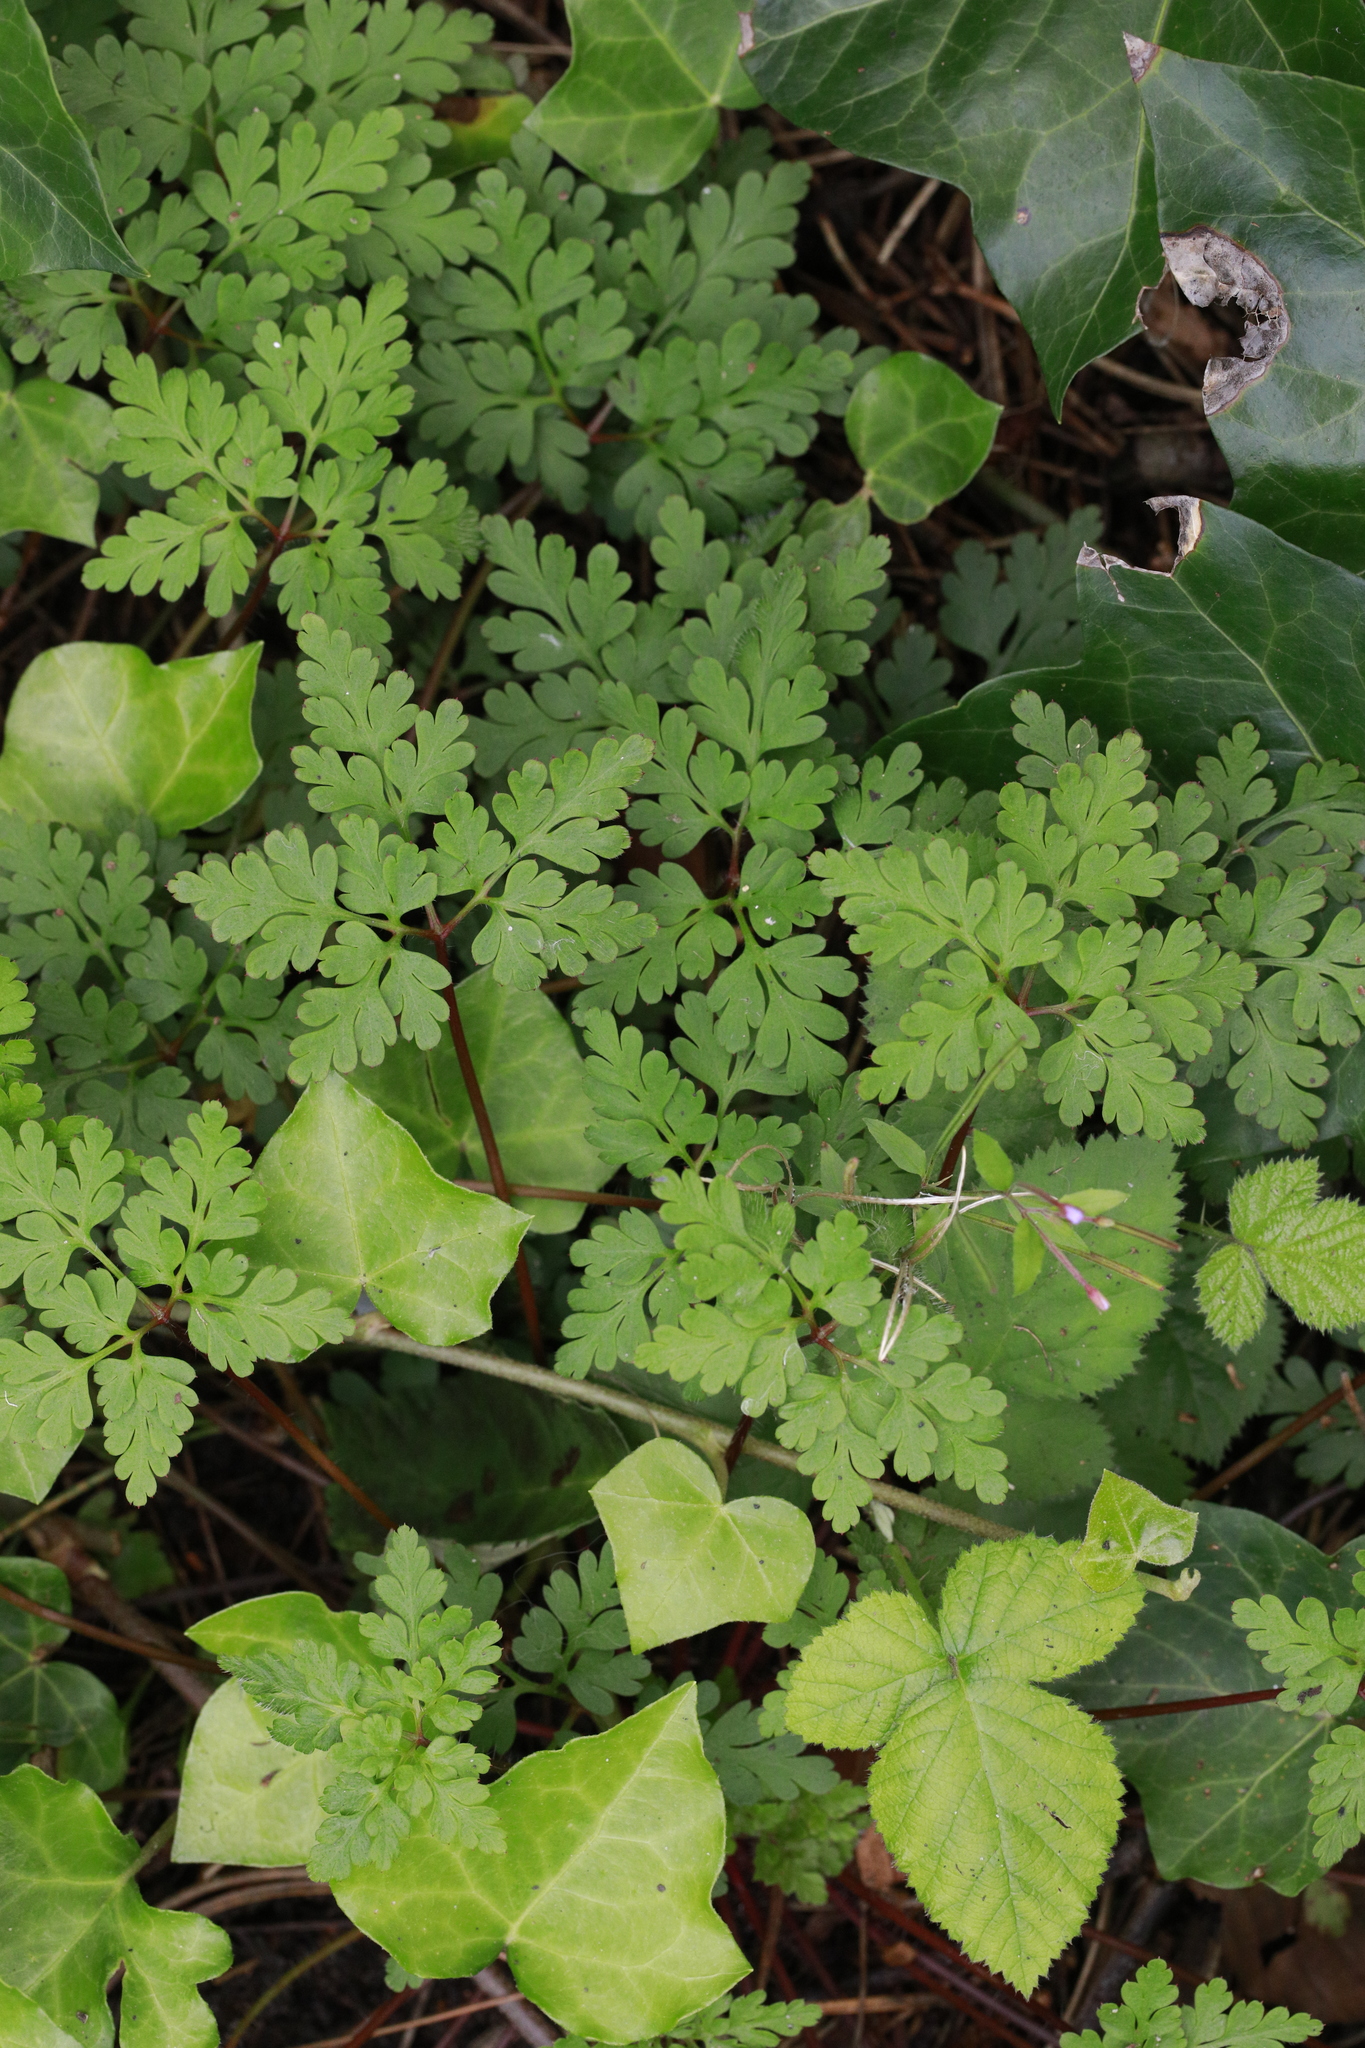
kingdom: Plantae
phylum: Tracheophyta
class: Magnoliopsida
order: Geraniales
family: Geraniaceae
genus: Geranium
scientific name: Geranium robertianum
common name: Herb-robert
